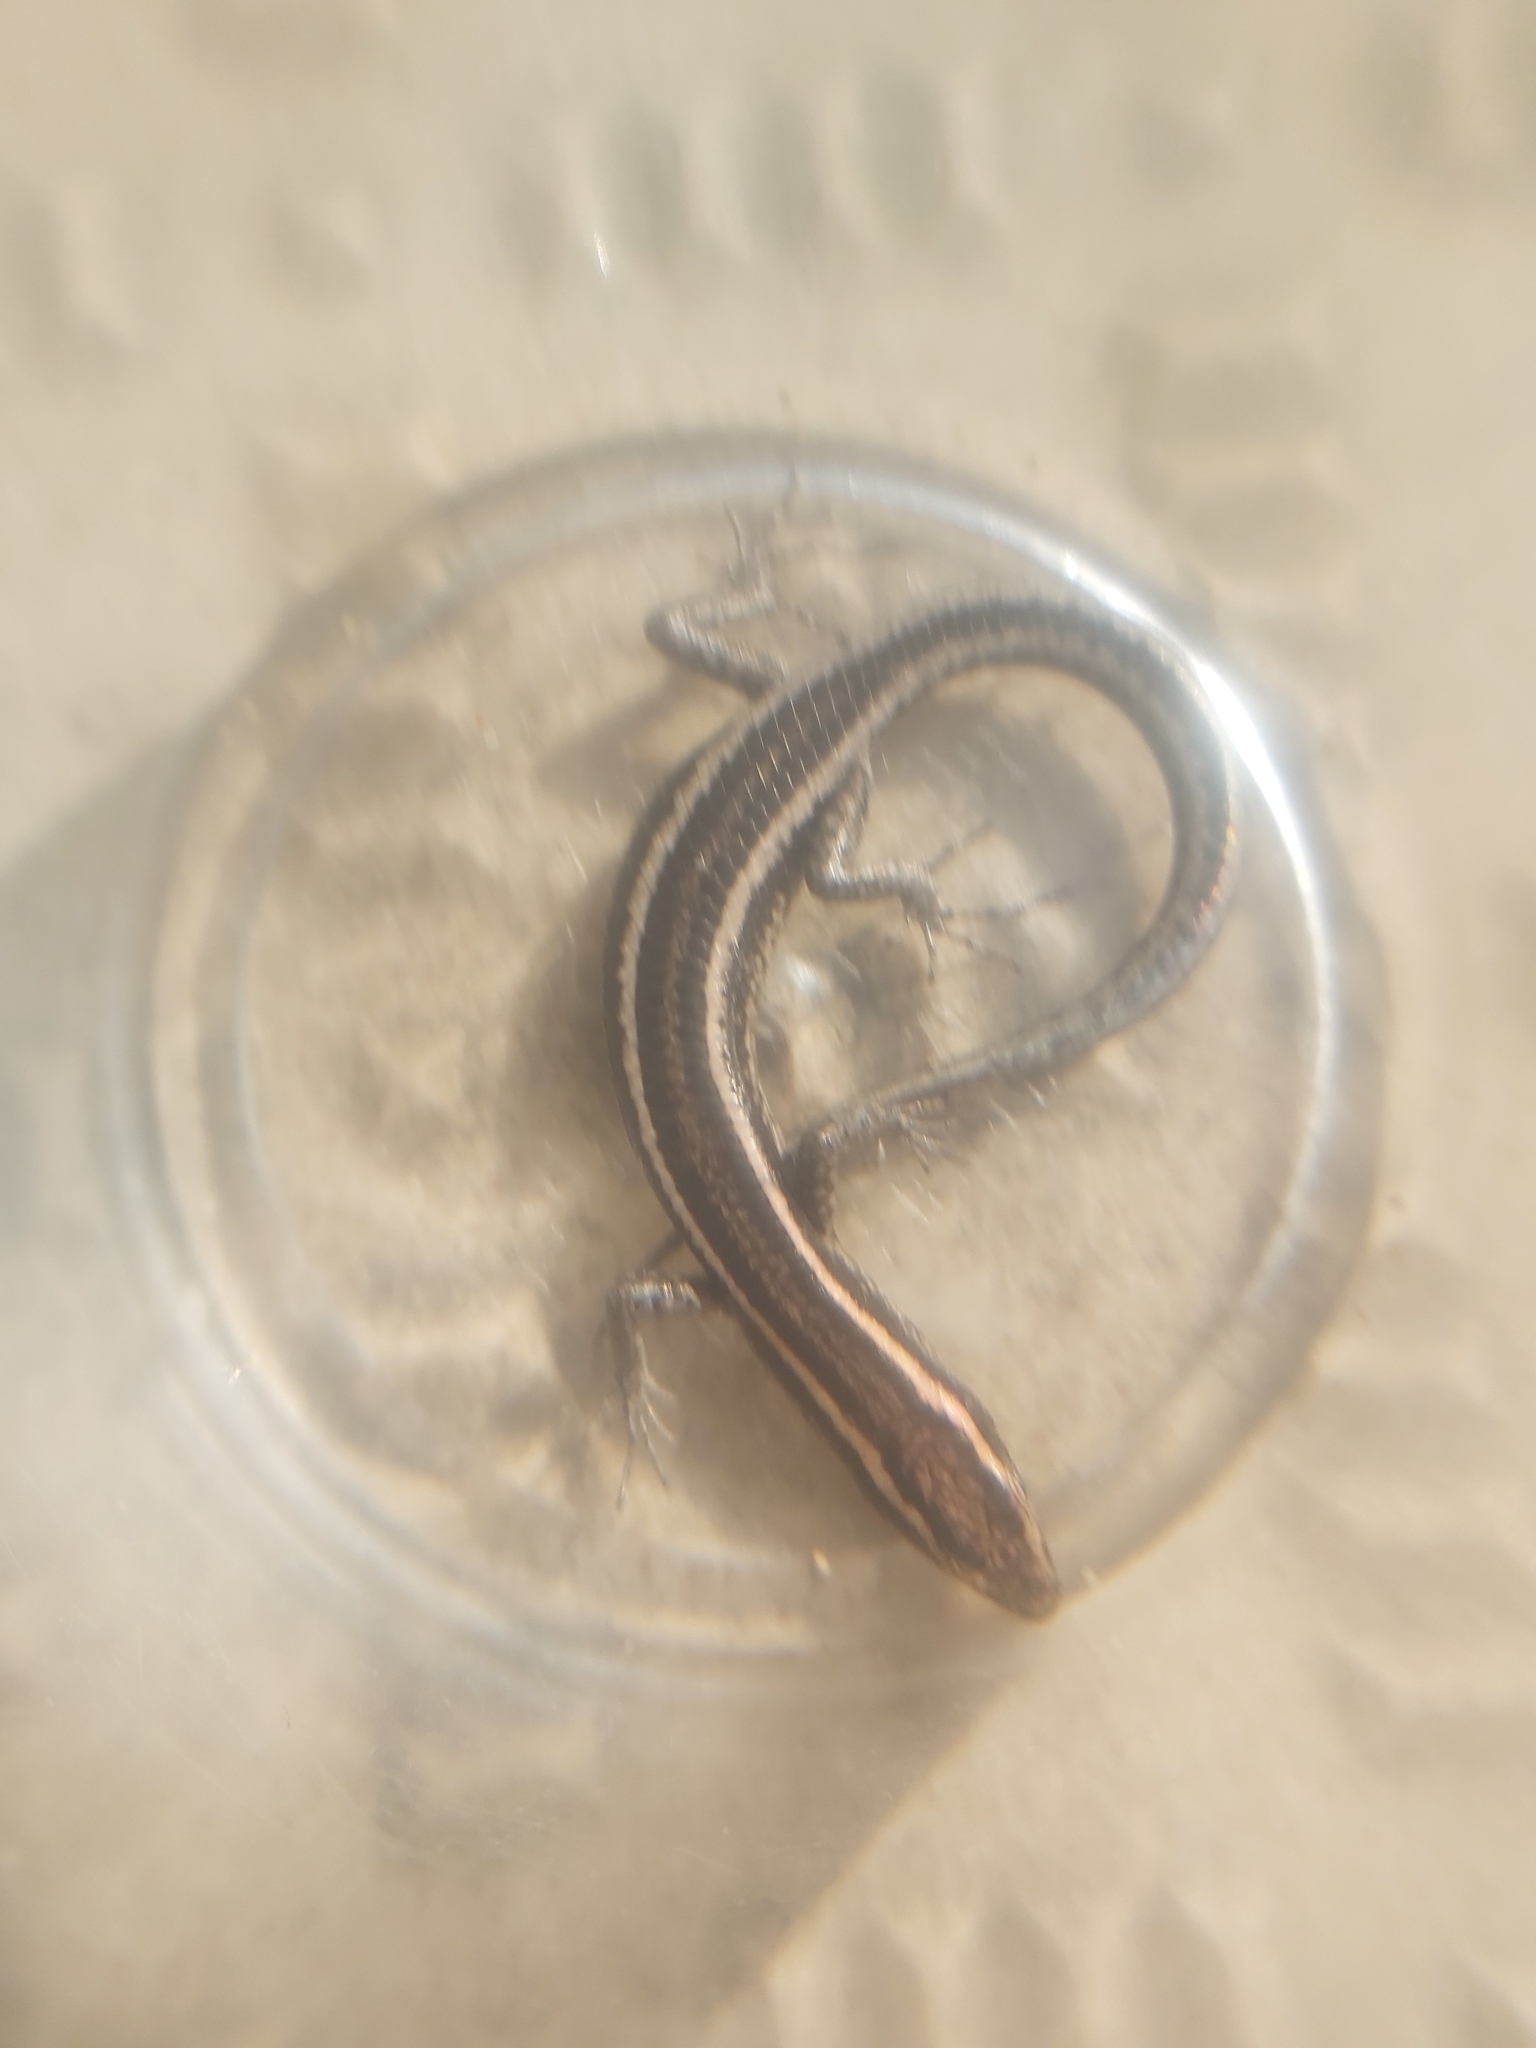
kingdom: Animalia
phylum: Chordata
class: Squamata
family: Scincidae
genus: Cryptoblepharus
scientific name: Cryptoblepharus pulcher
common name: Elegant snake-eyed skink
